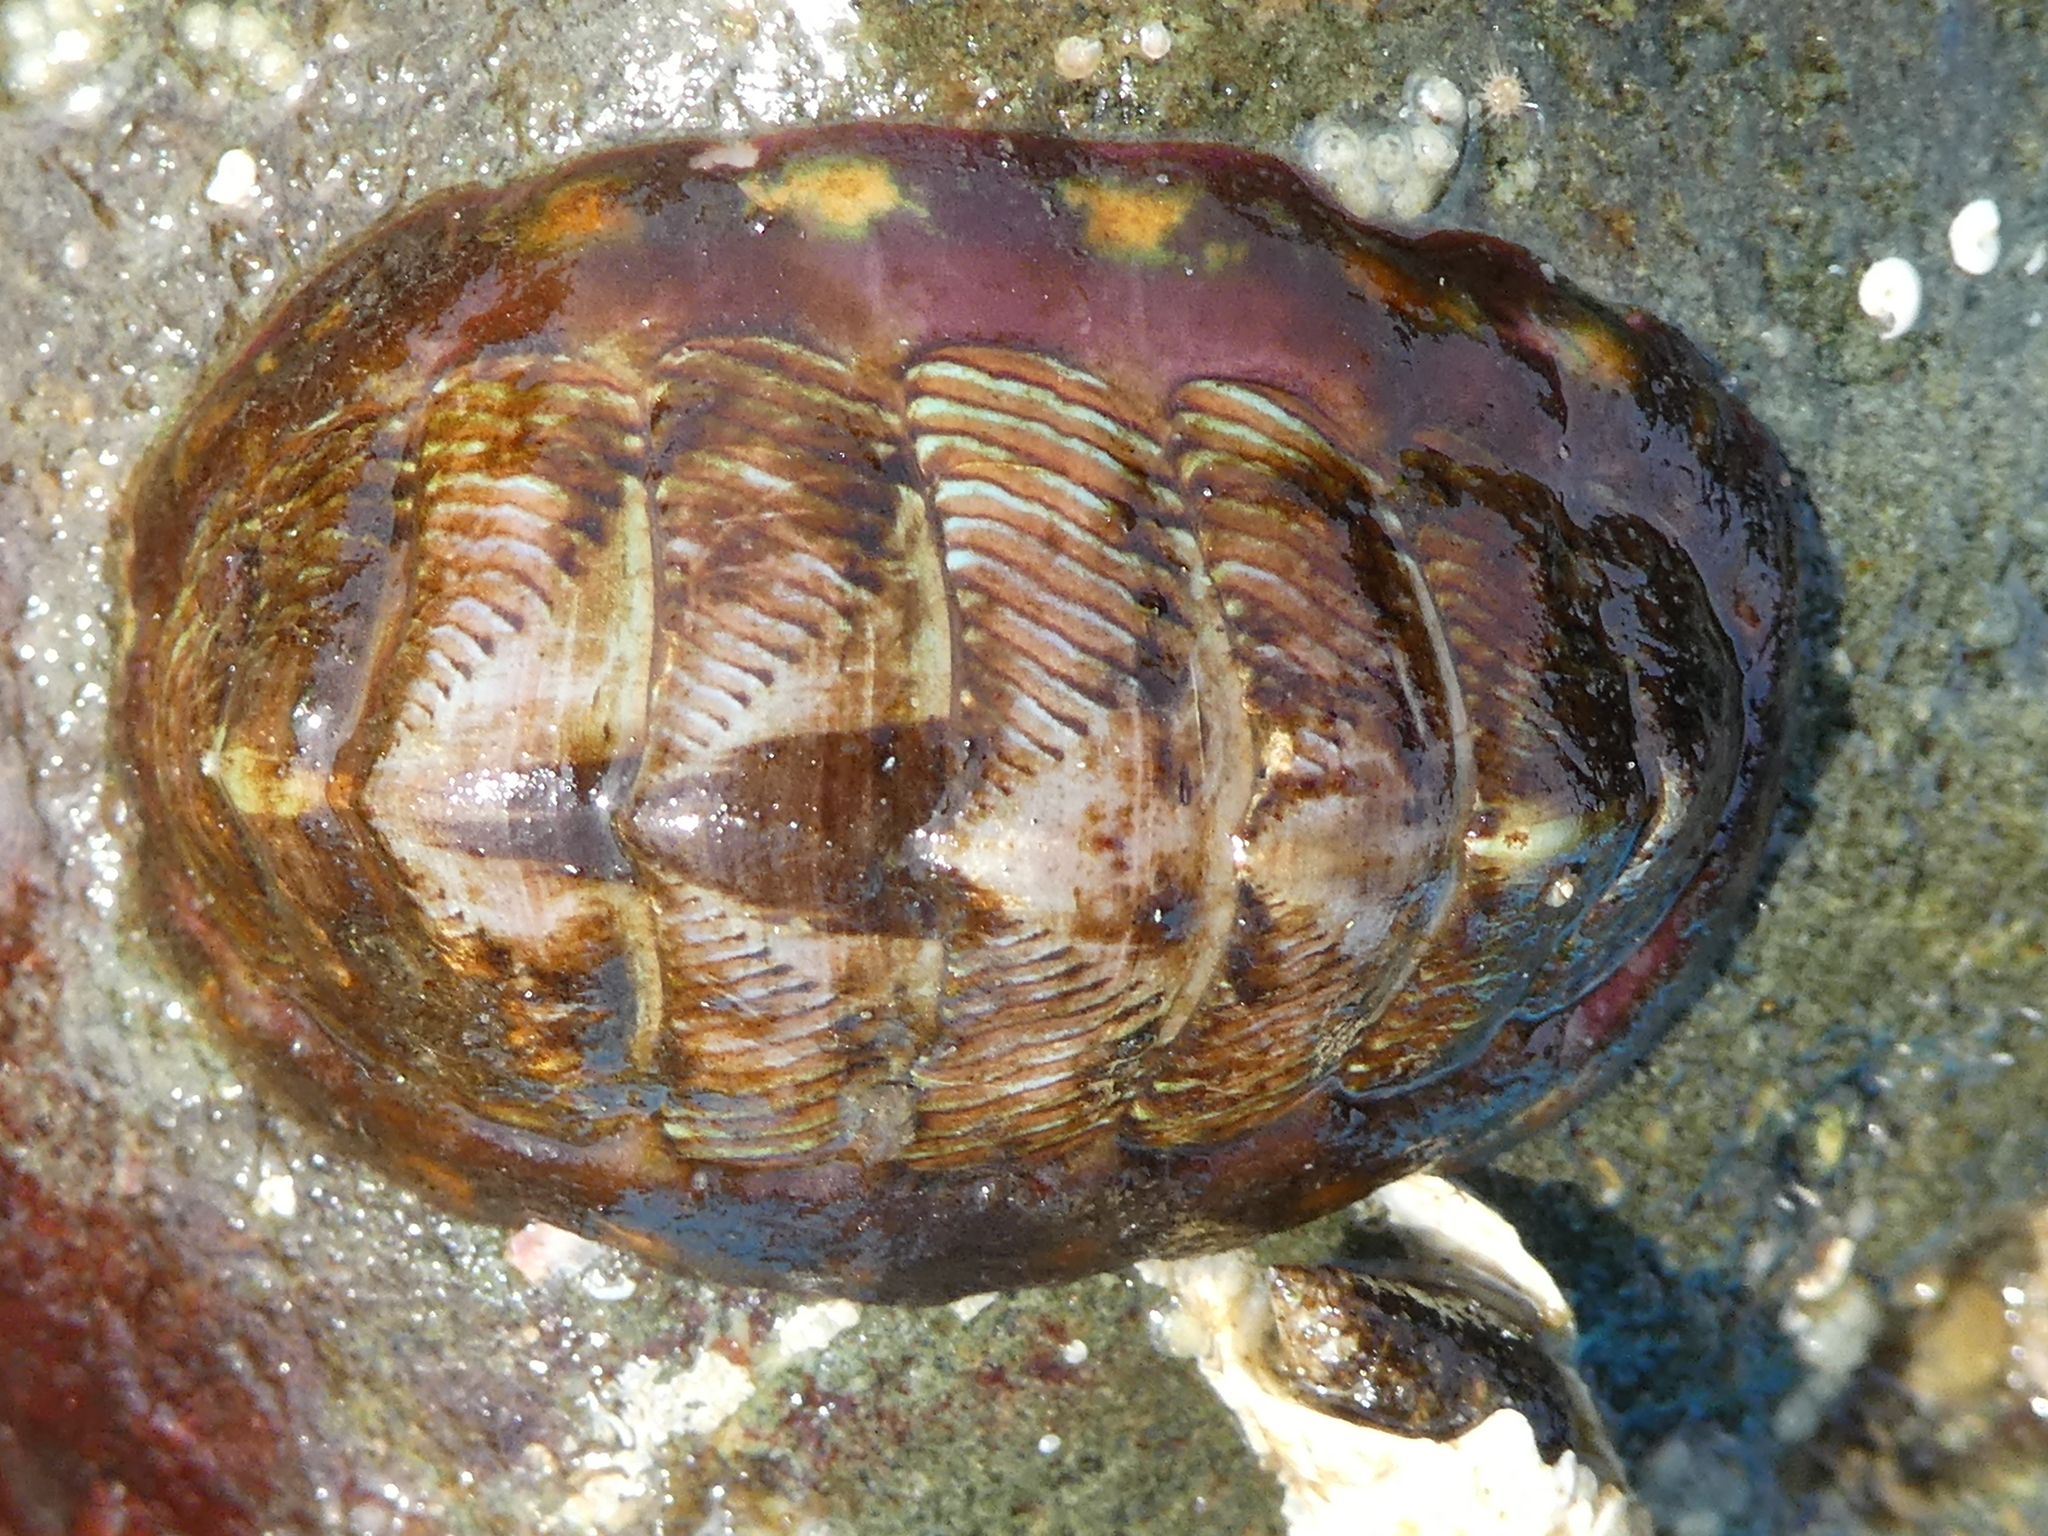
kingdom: Animalia
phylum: Mollusca
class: Polyplacophora
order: Chitonida
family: Tonicellidae
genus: Tonicella
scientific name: Tonicella lineata
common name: Lined chiton
